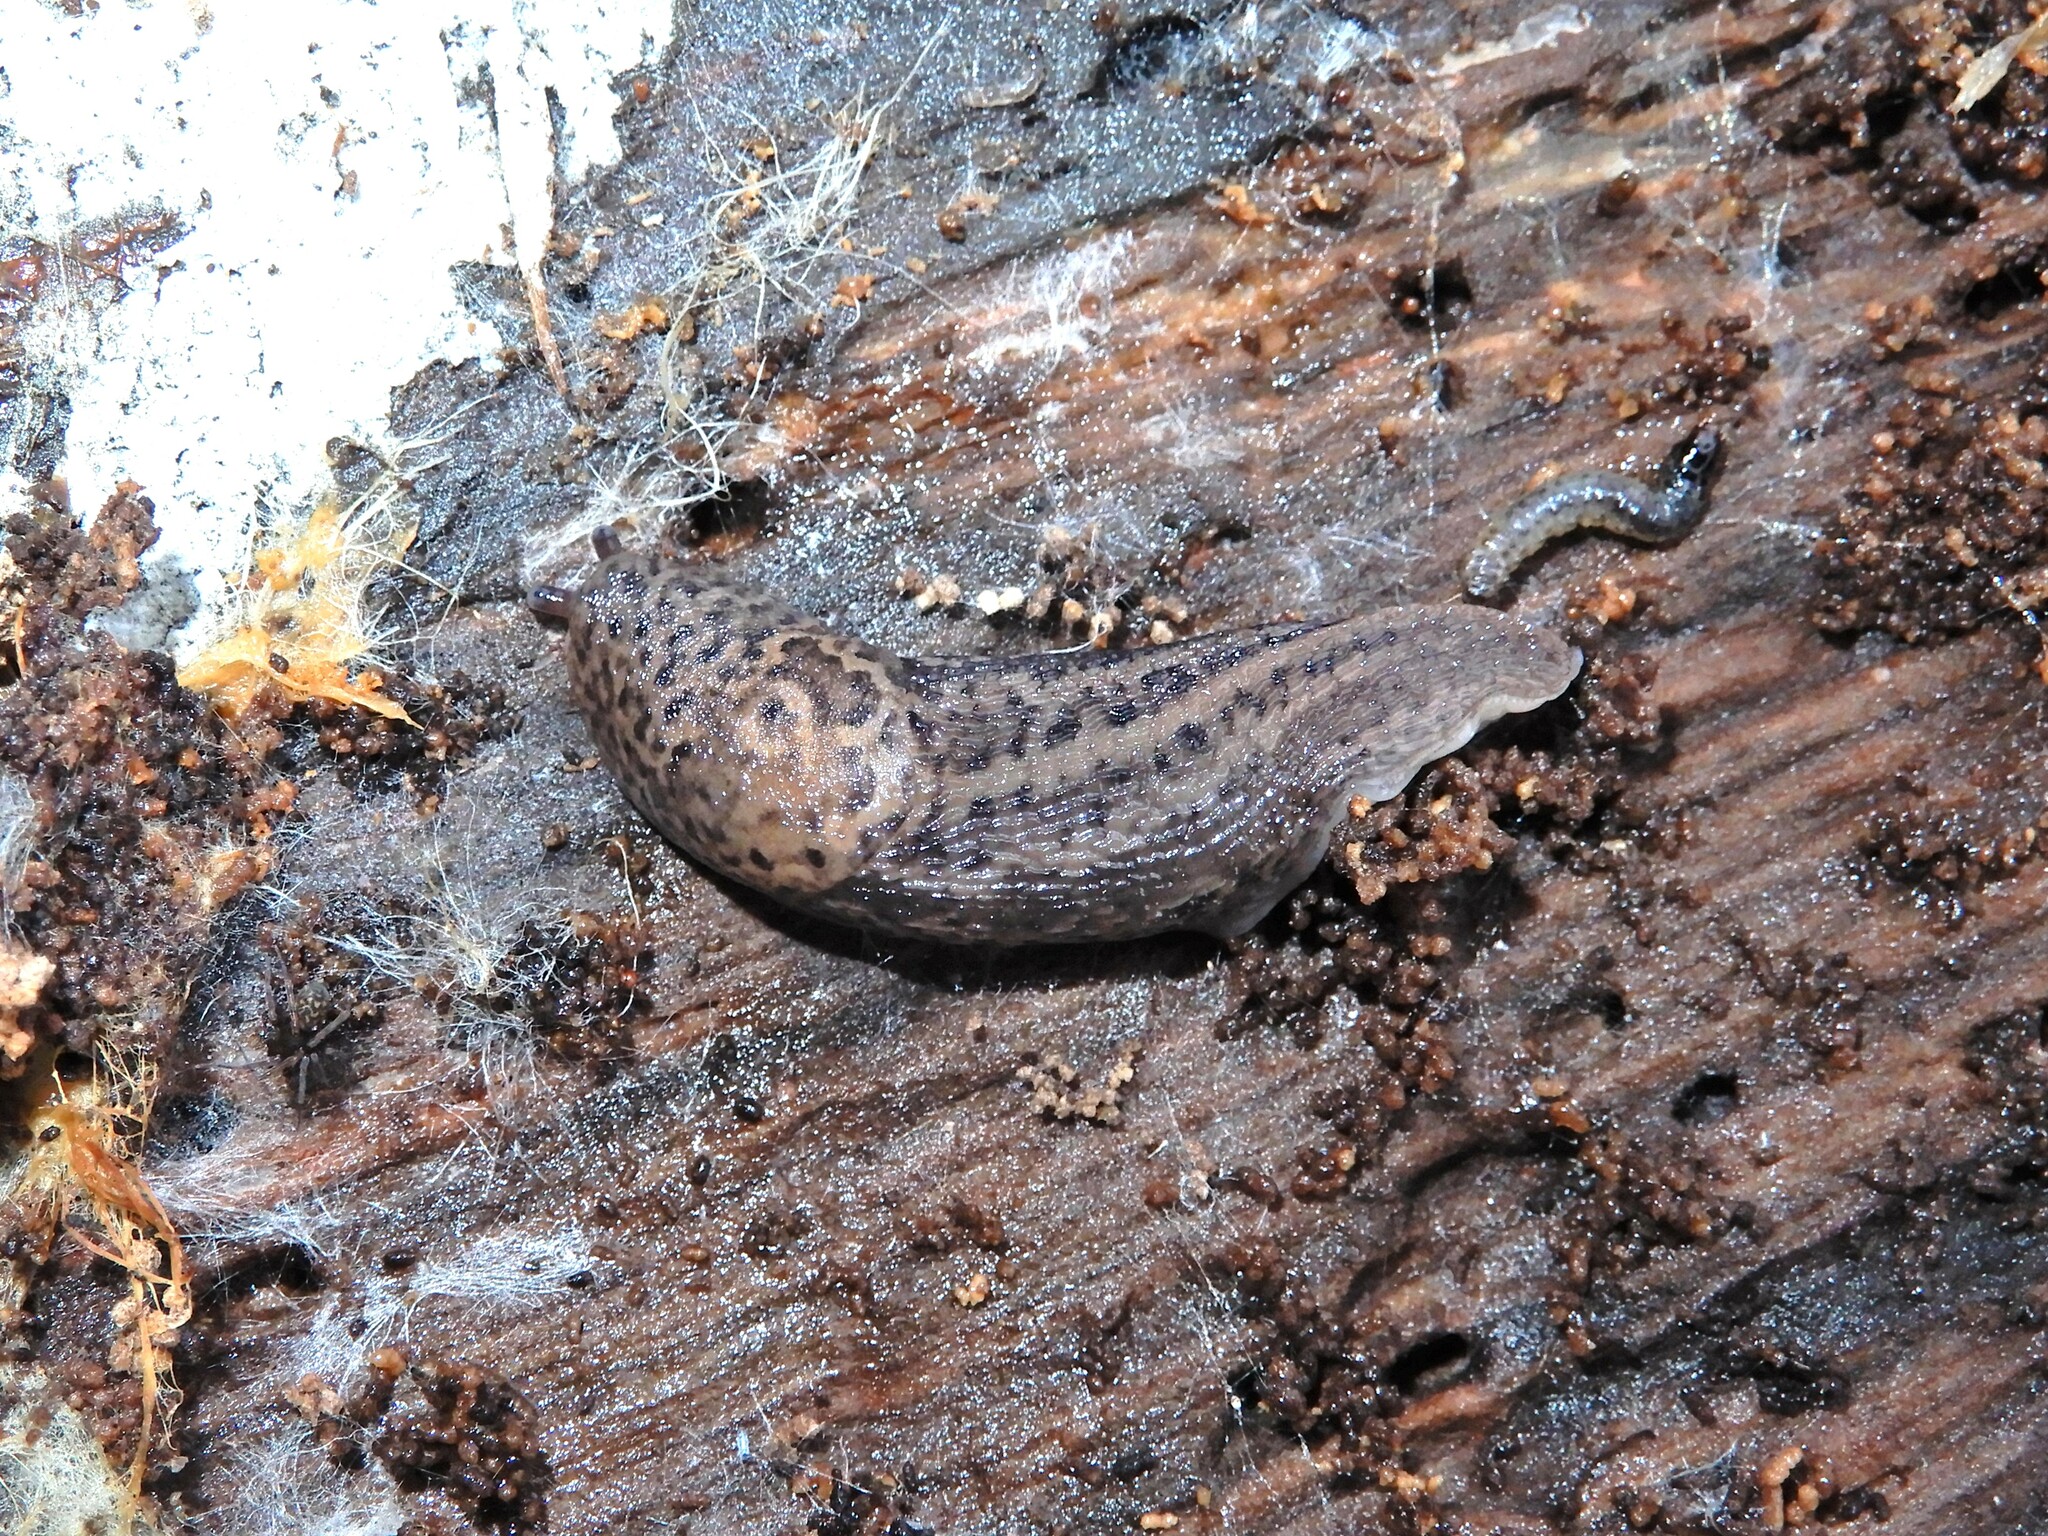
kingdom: Animalia
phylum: Mollusca
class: Gastropoda
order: Stylommatophora
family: Limacidae
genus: Limax
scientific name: Limax maximus
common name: Great grey slug
